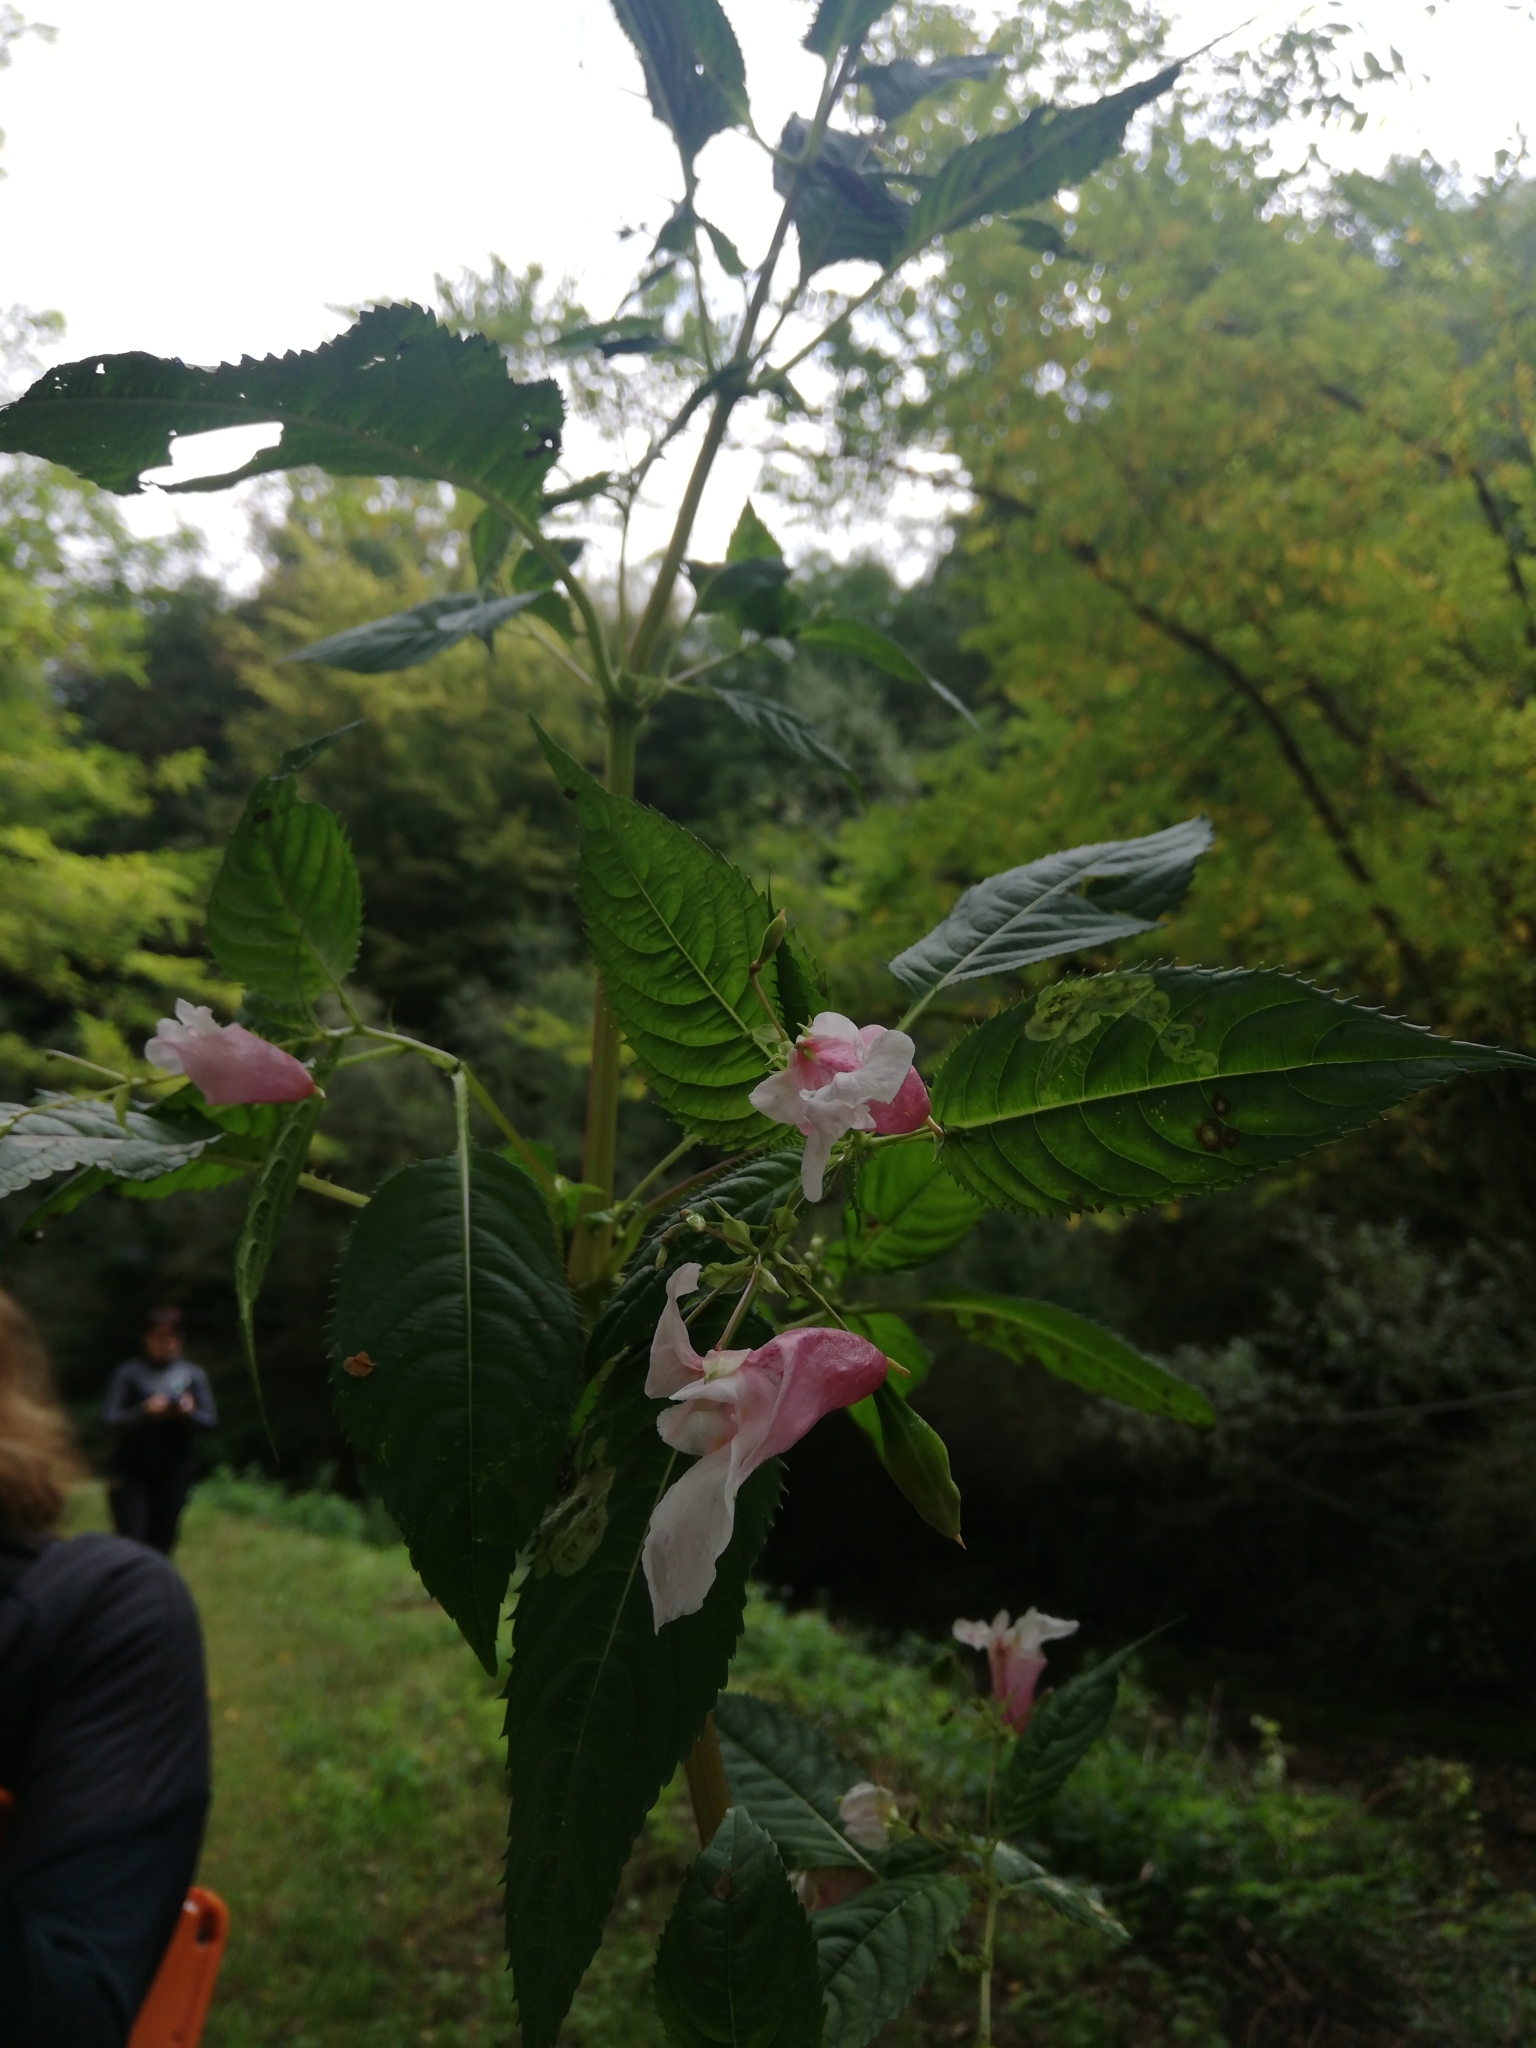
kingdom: Plantae
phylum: Tracheophyta
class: Magnoliopsida
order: Ericales
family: Balsaminaceae
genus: Impatiens
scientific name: Impatiens glandulifera
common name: Himalayan balsam
